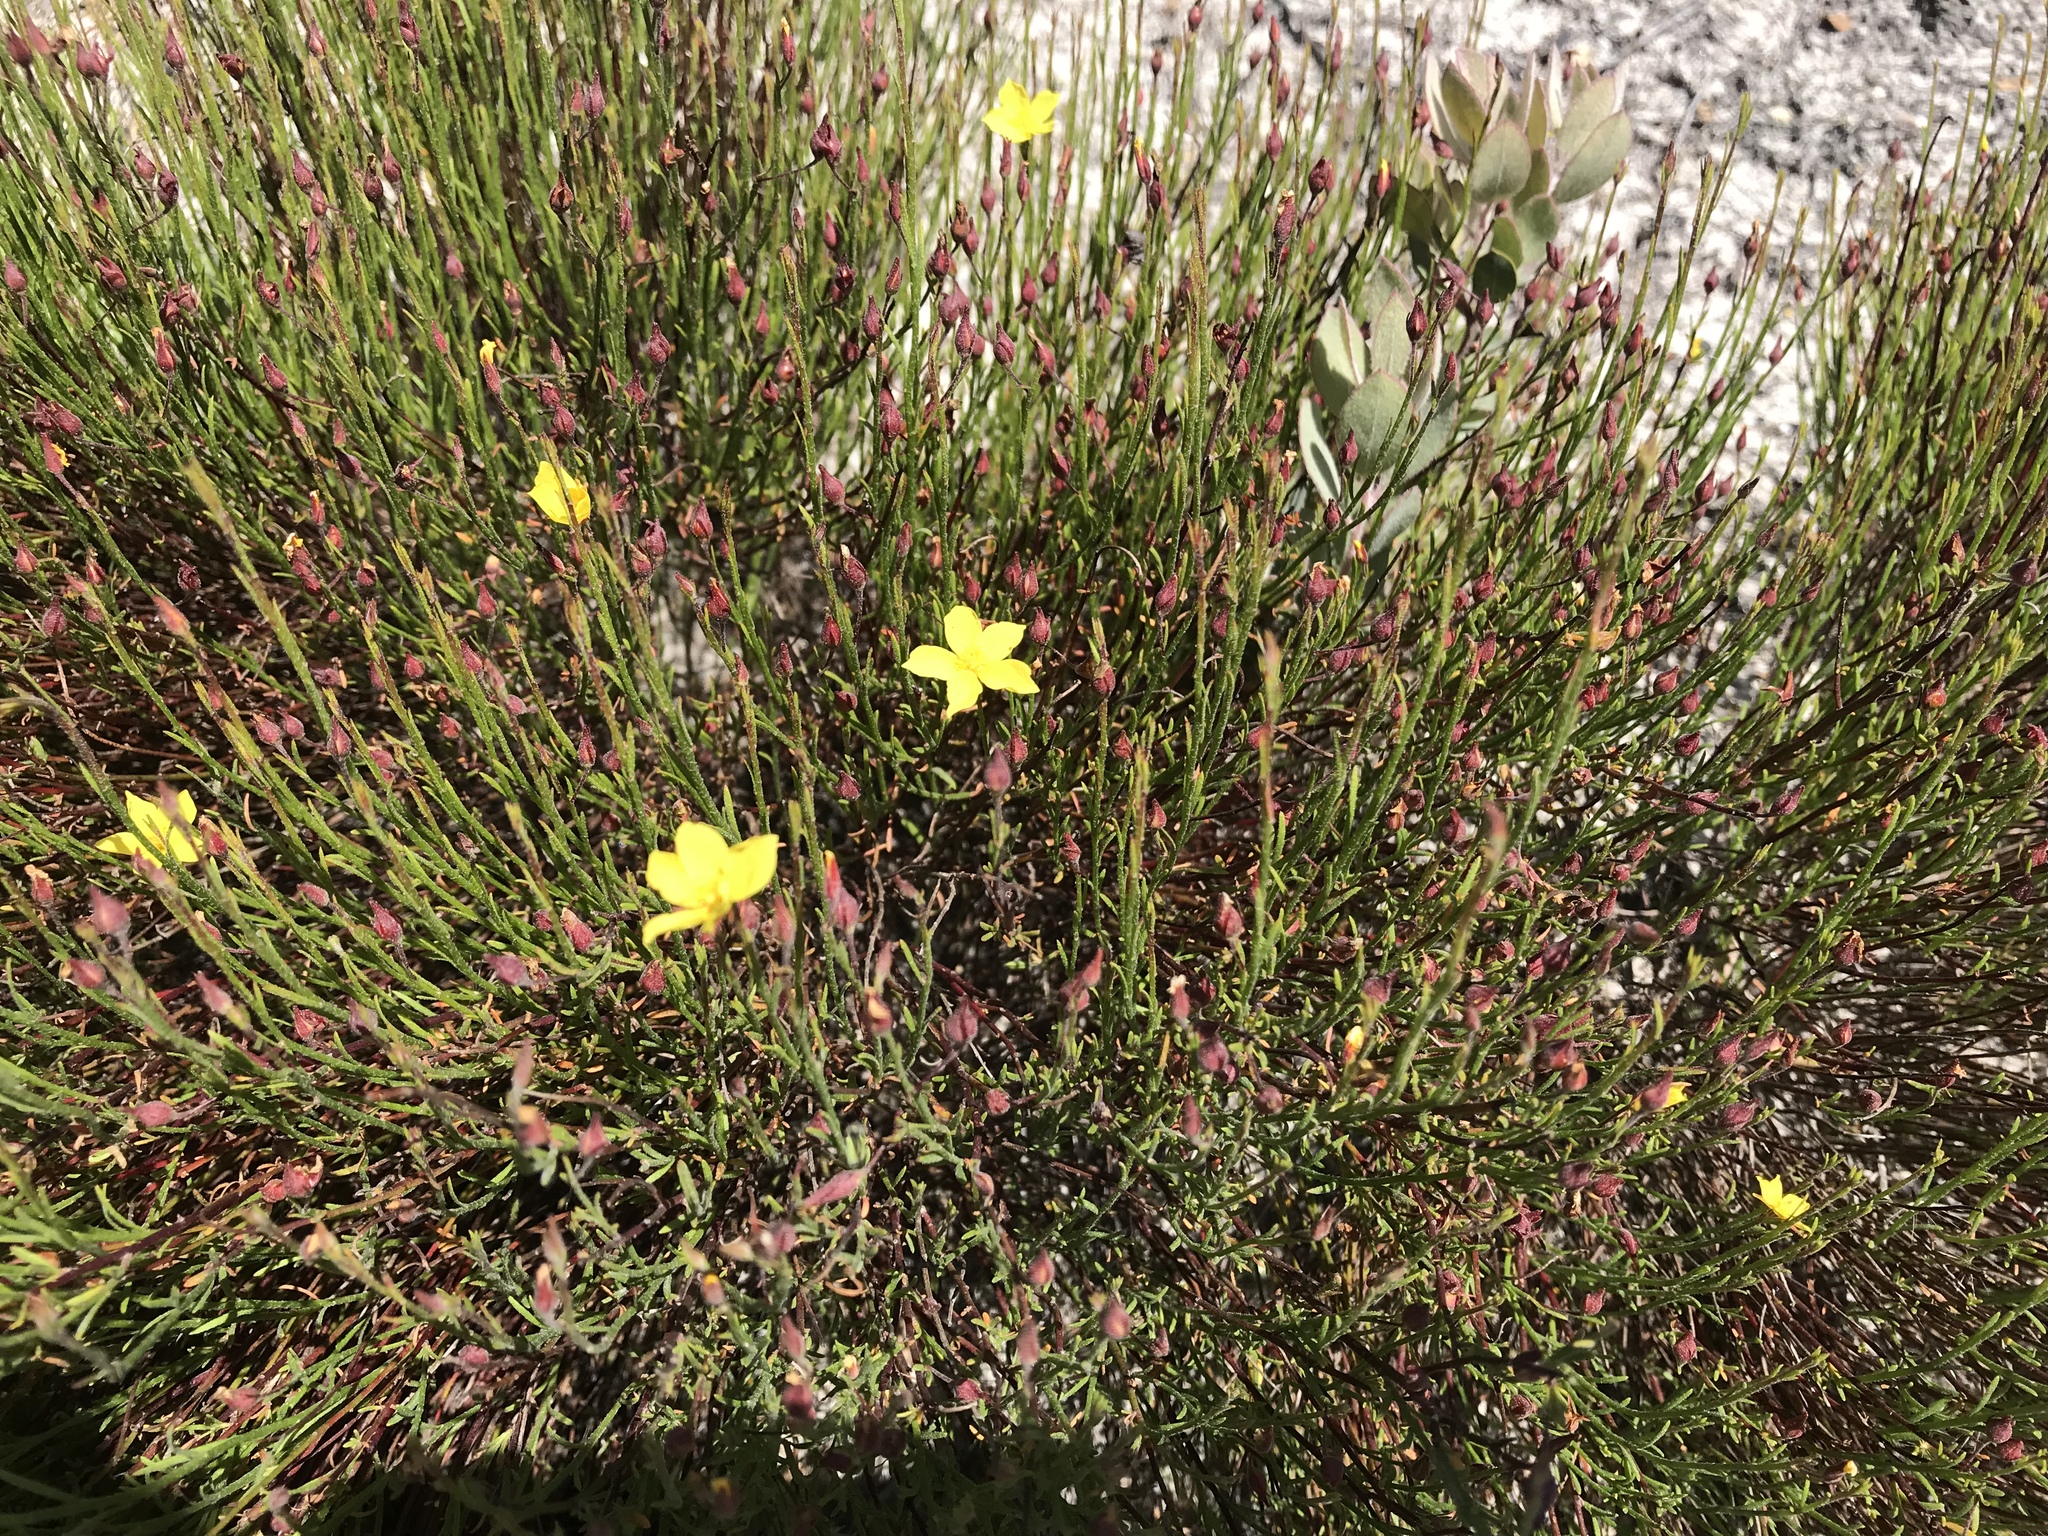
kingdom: Plantae
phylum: Tracheophyta
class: Magnoliopsida
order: Malvales
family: Cistaceae
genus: Crocanthemum
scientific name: Crocanthemum scoparium
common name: Broom-rose
